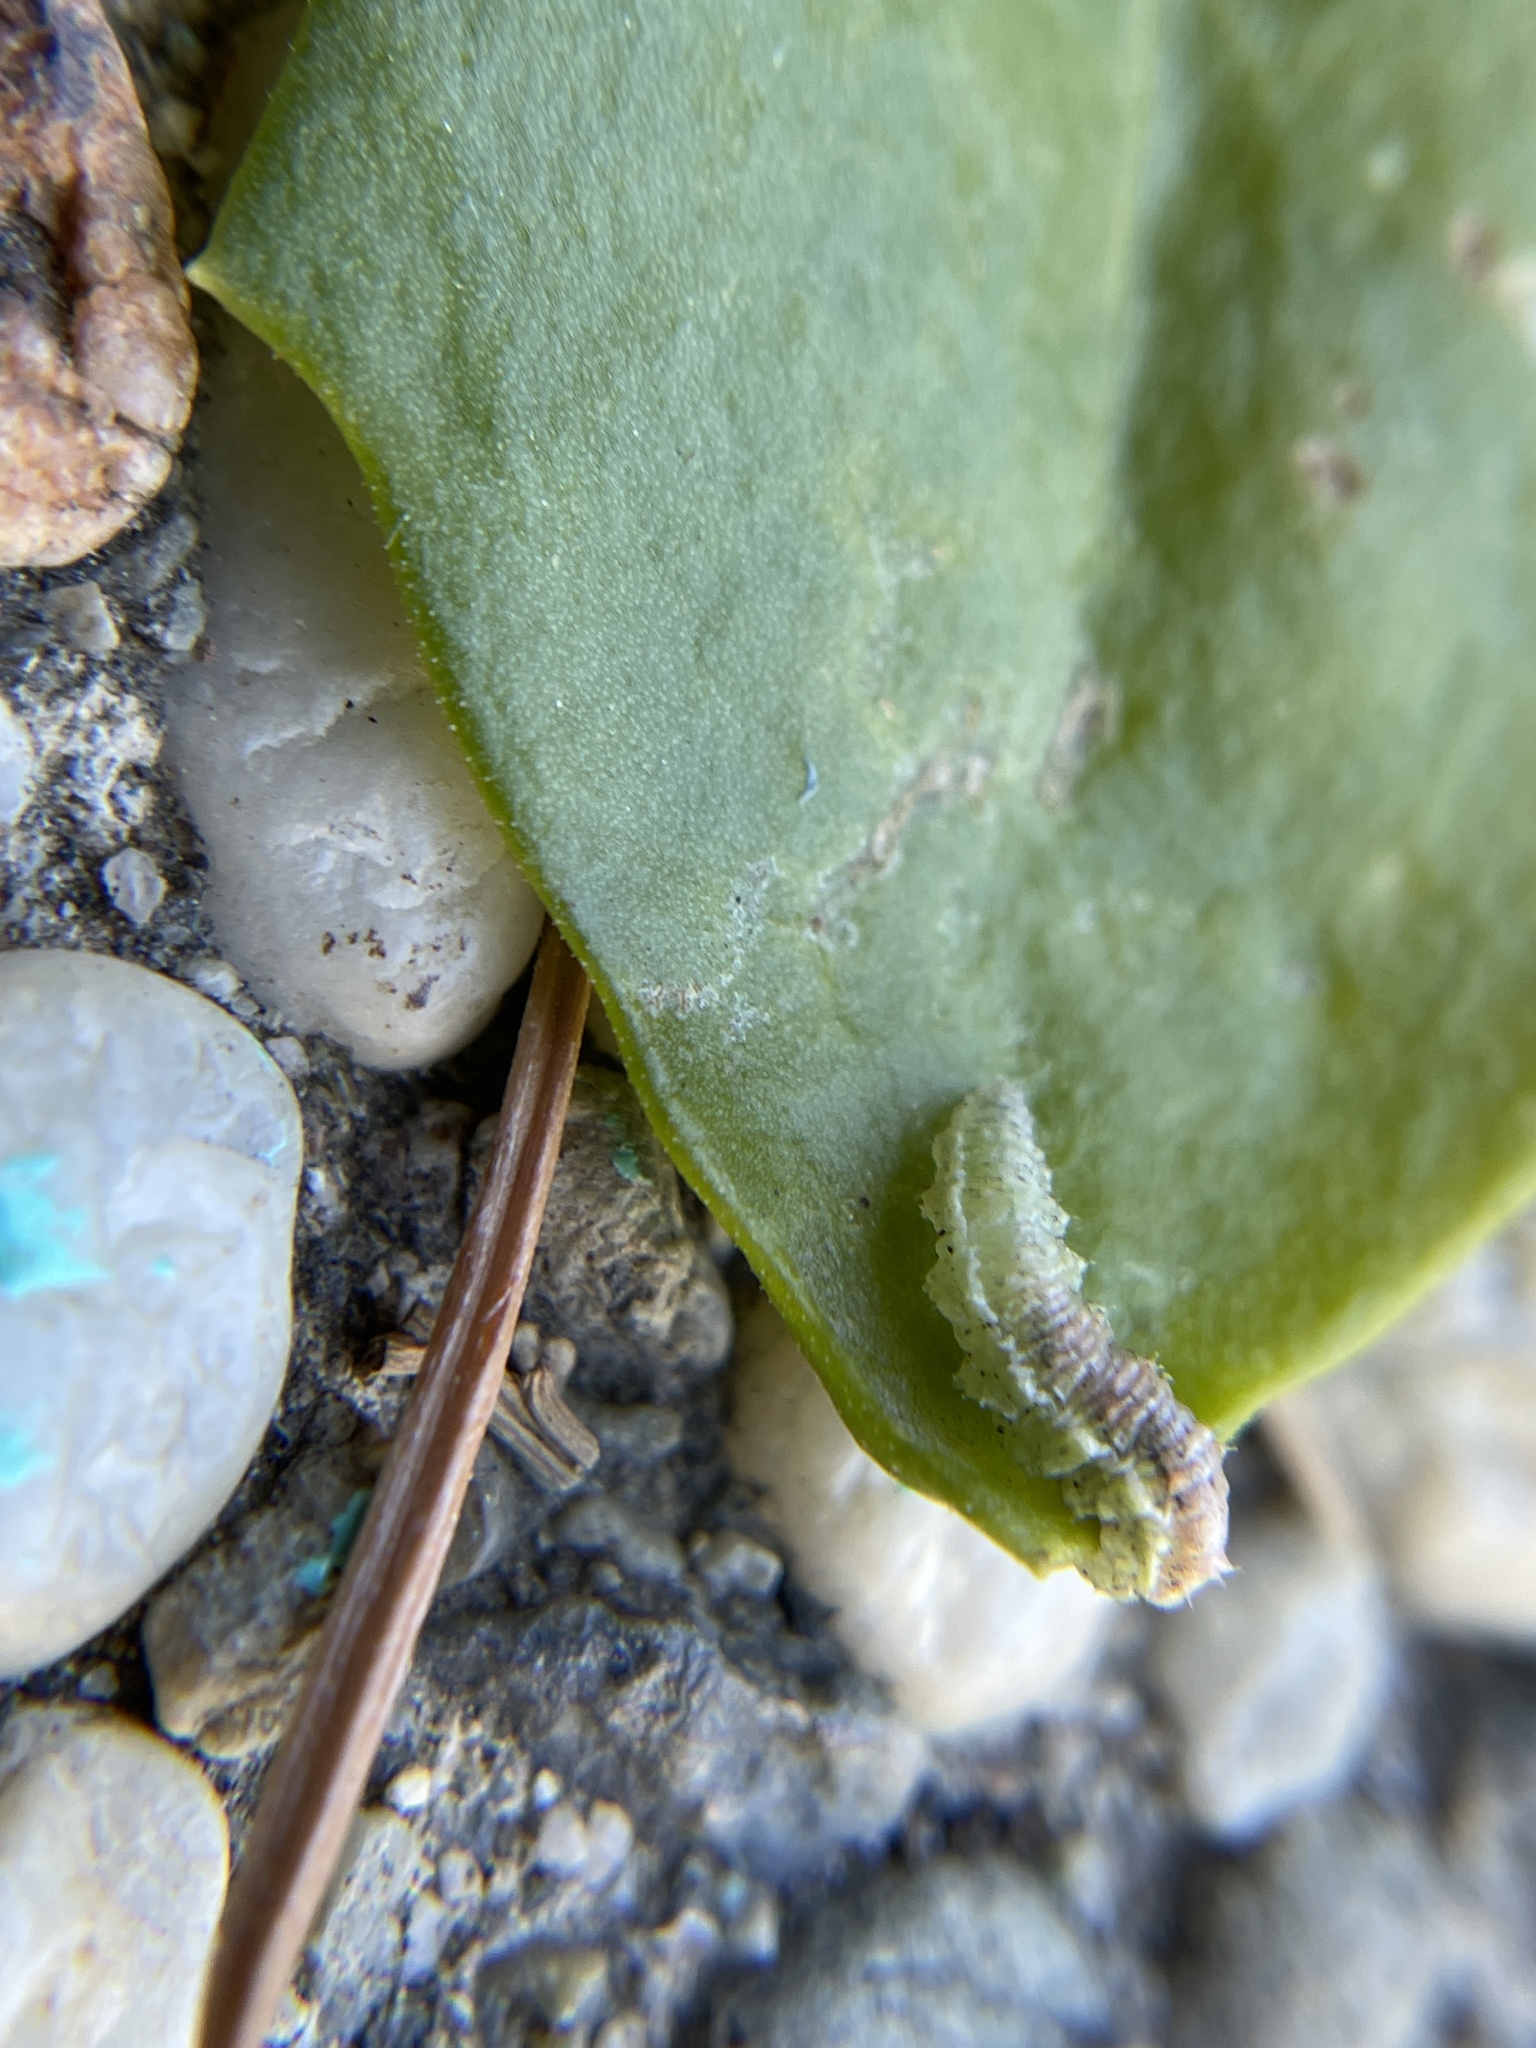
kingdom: Animalia
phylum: Arthropoda
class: Insecta
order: Diptera
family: Syrphidae
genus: Eupeodes
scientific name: Eupeodes volucris
